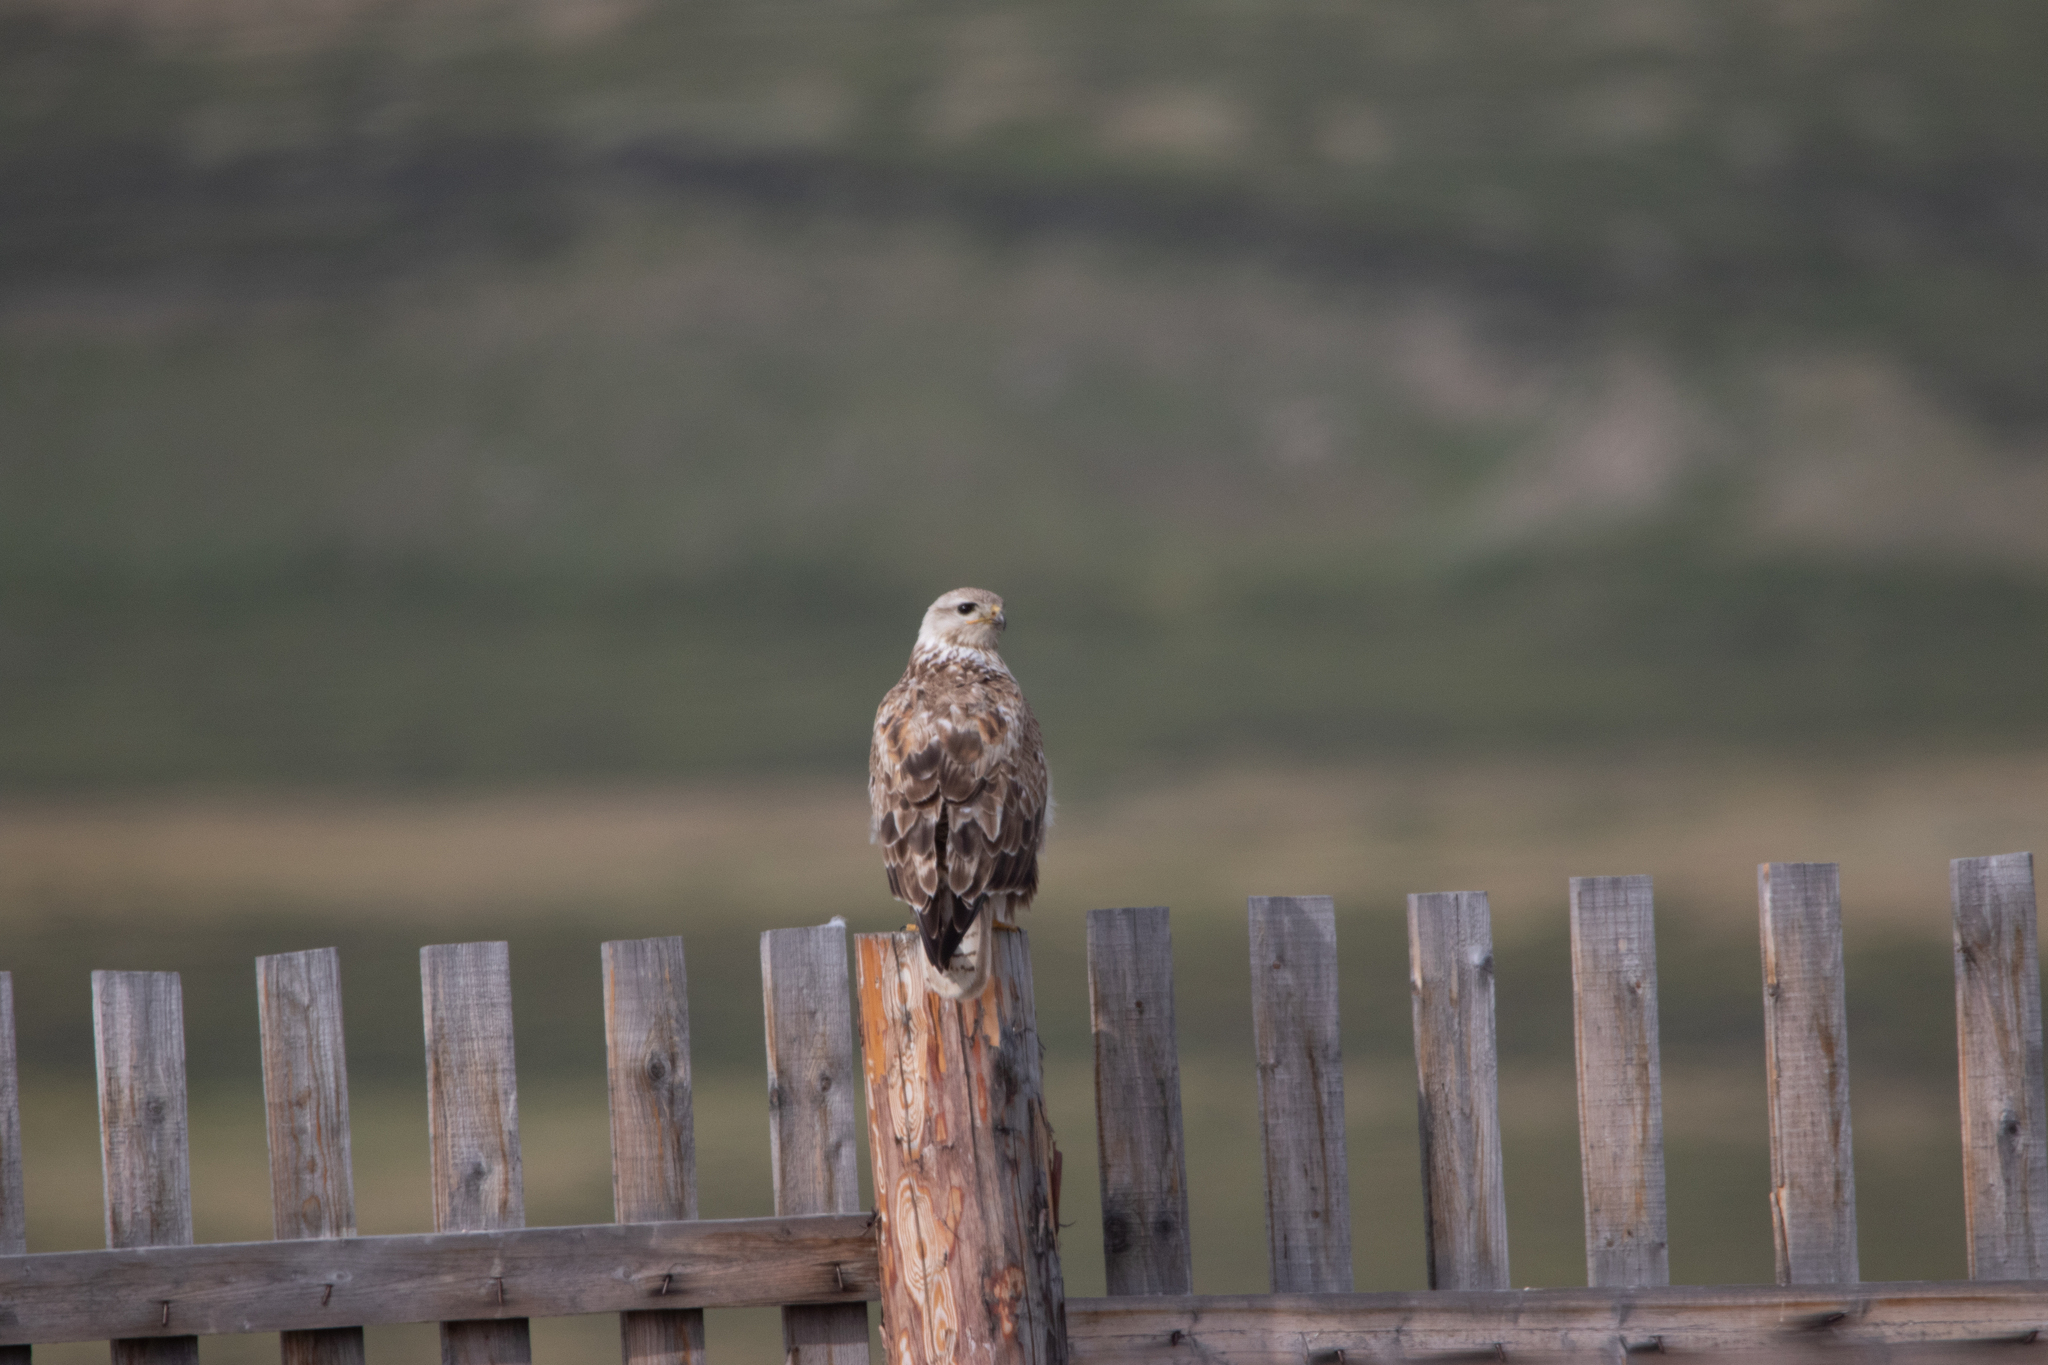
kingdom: Animalia
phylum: Chordata
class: Aves
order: Accipitriformes
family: Accipitridae
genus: Buteo
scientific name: Buteo hemilasius
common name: Upland buzzard
